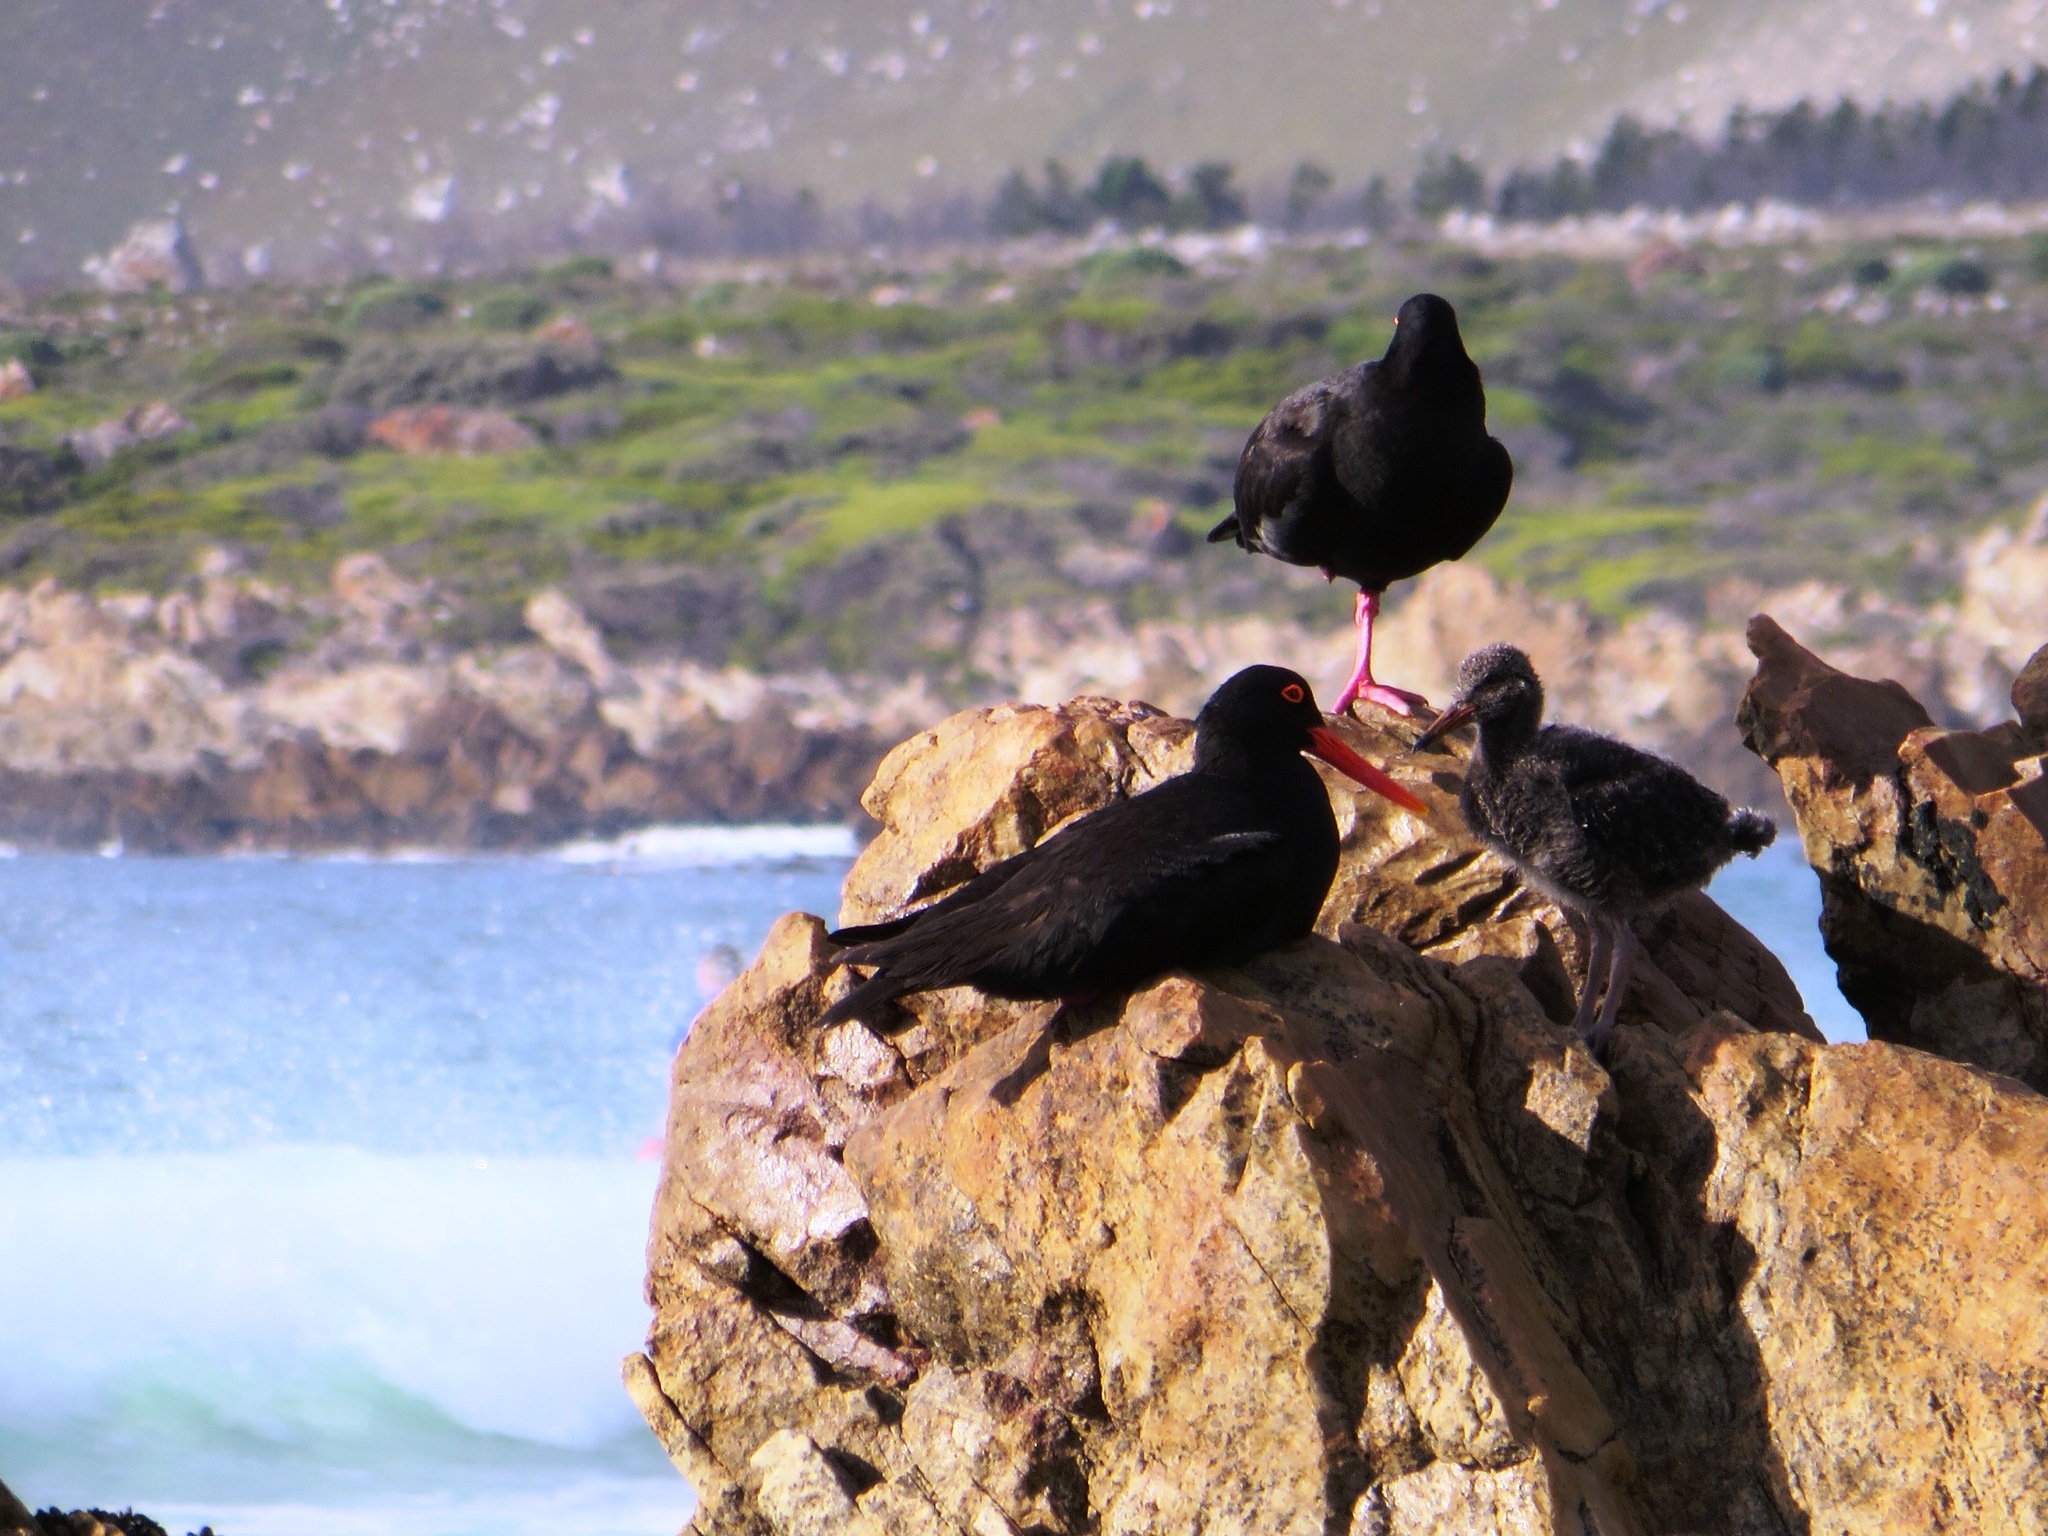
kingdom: Animalia
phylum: Chordata
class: Aves
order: Charadriiformes
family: Haematopodidae
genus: Haematopus
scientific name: Haematopus moquini
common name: African oystercatcher
